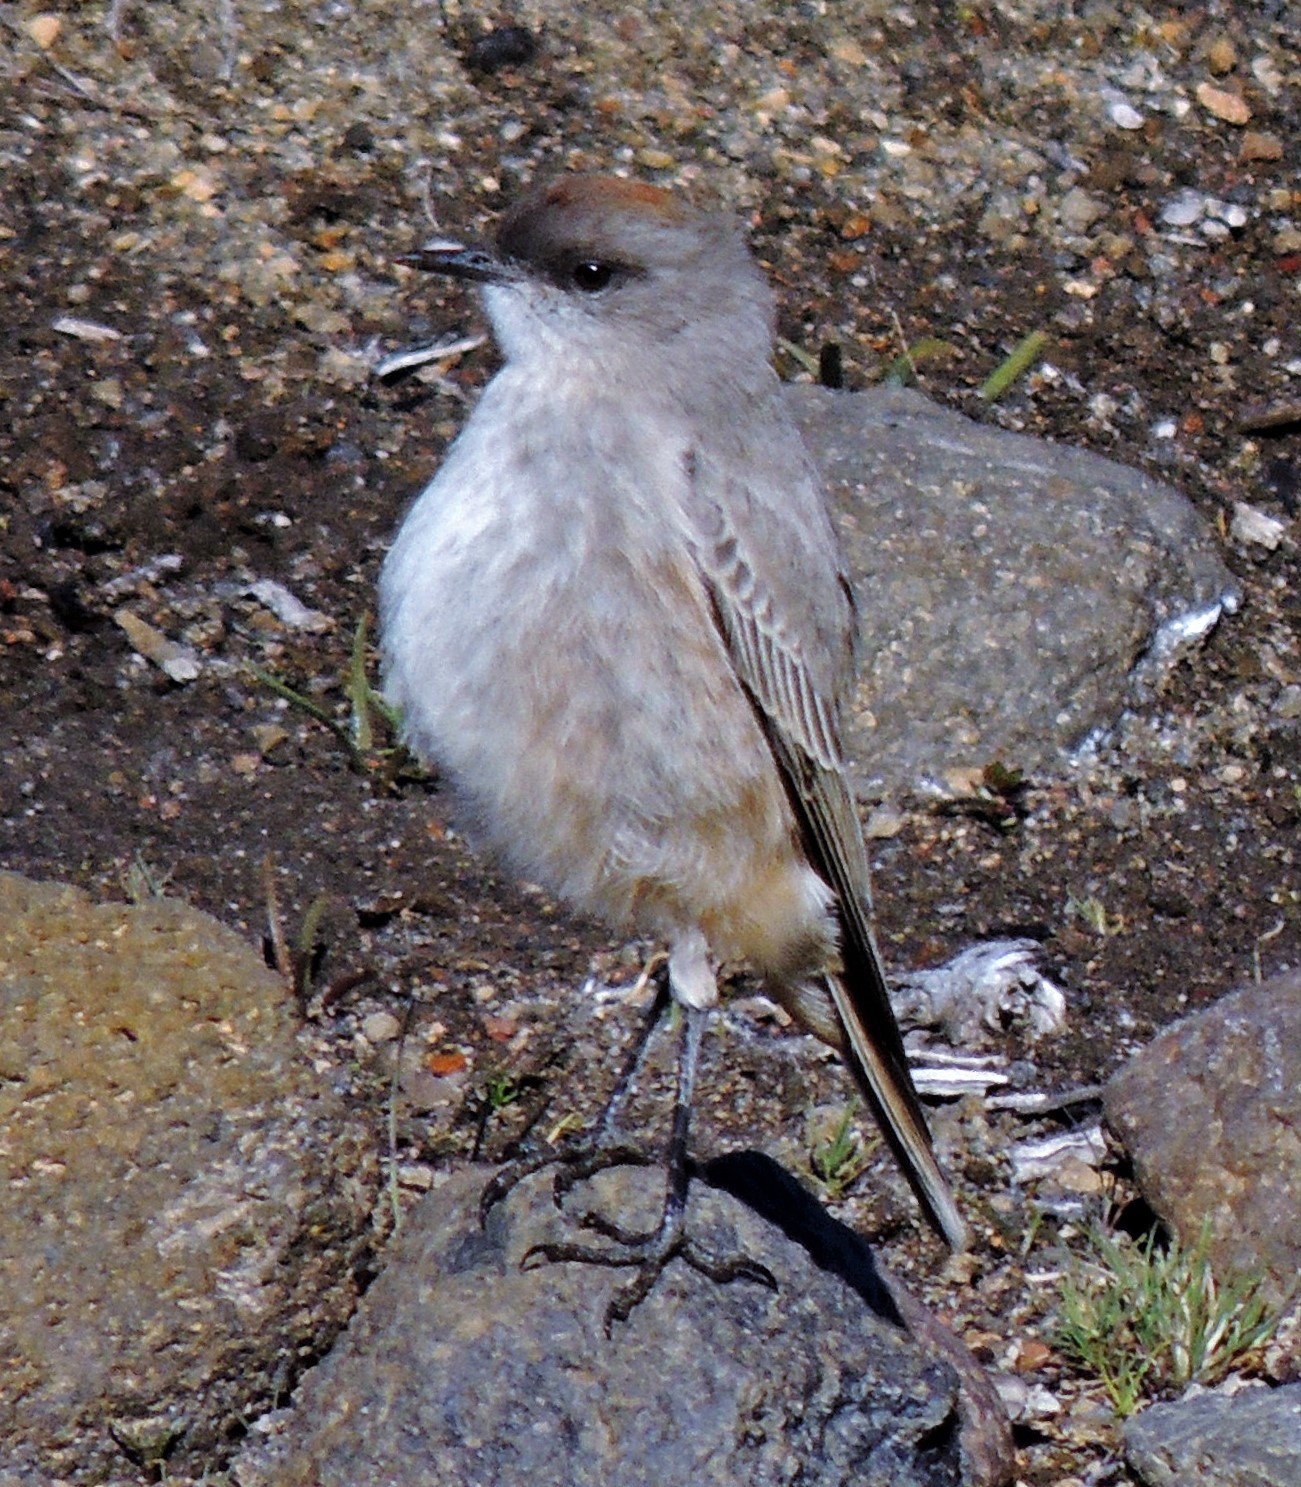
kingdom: Animalia
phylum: Chordata
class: Aves
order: Passeriformes
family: Tyrannidae
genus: Muscisaxicola
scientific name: Muscisaxicola capistratus
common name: Cinnamon-bellied ground tyrant
